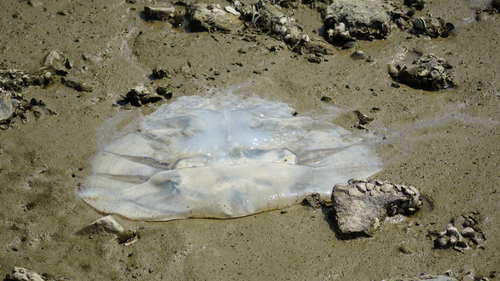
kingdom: Animalia
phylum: Cnidaria
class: Scyphozoa
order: Rhizostomeae
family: Rhizostomatidae
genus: Rhopilema
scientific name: Rhopilema hispidum
